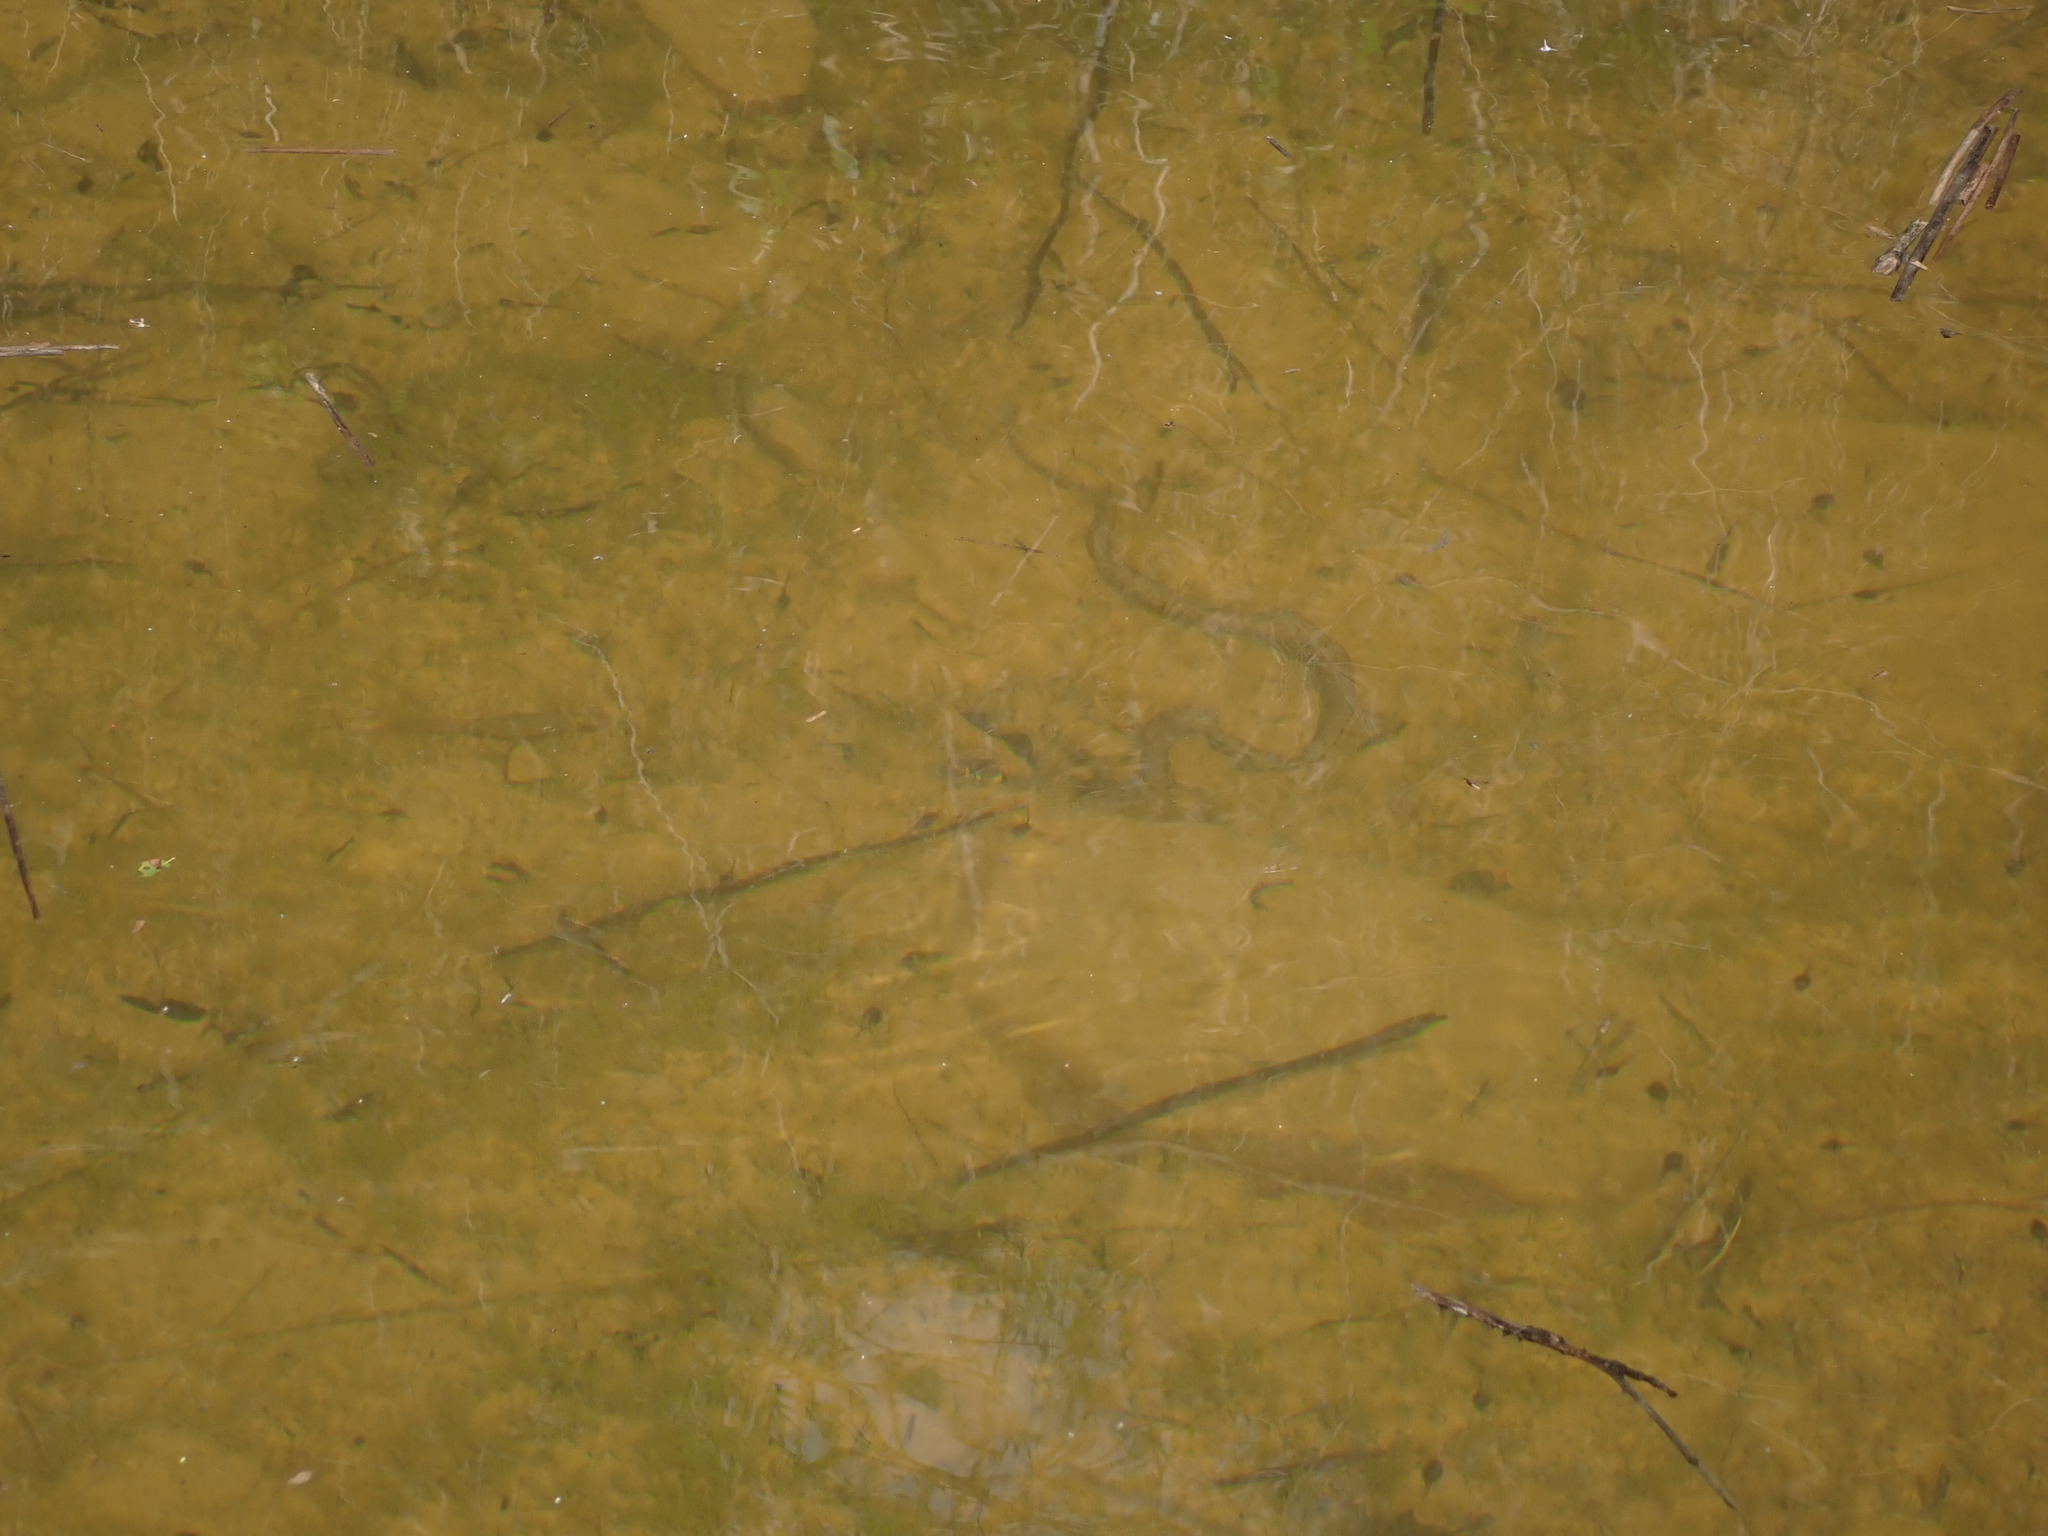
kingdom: Animalia
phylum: Chordata
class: Squamata
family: Colubridae
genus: Natrix
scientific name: Natrix helvetica
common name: Banded grass snake
